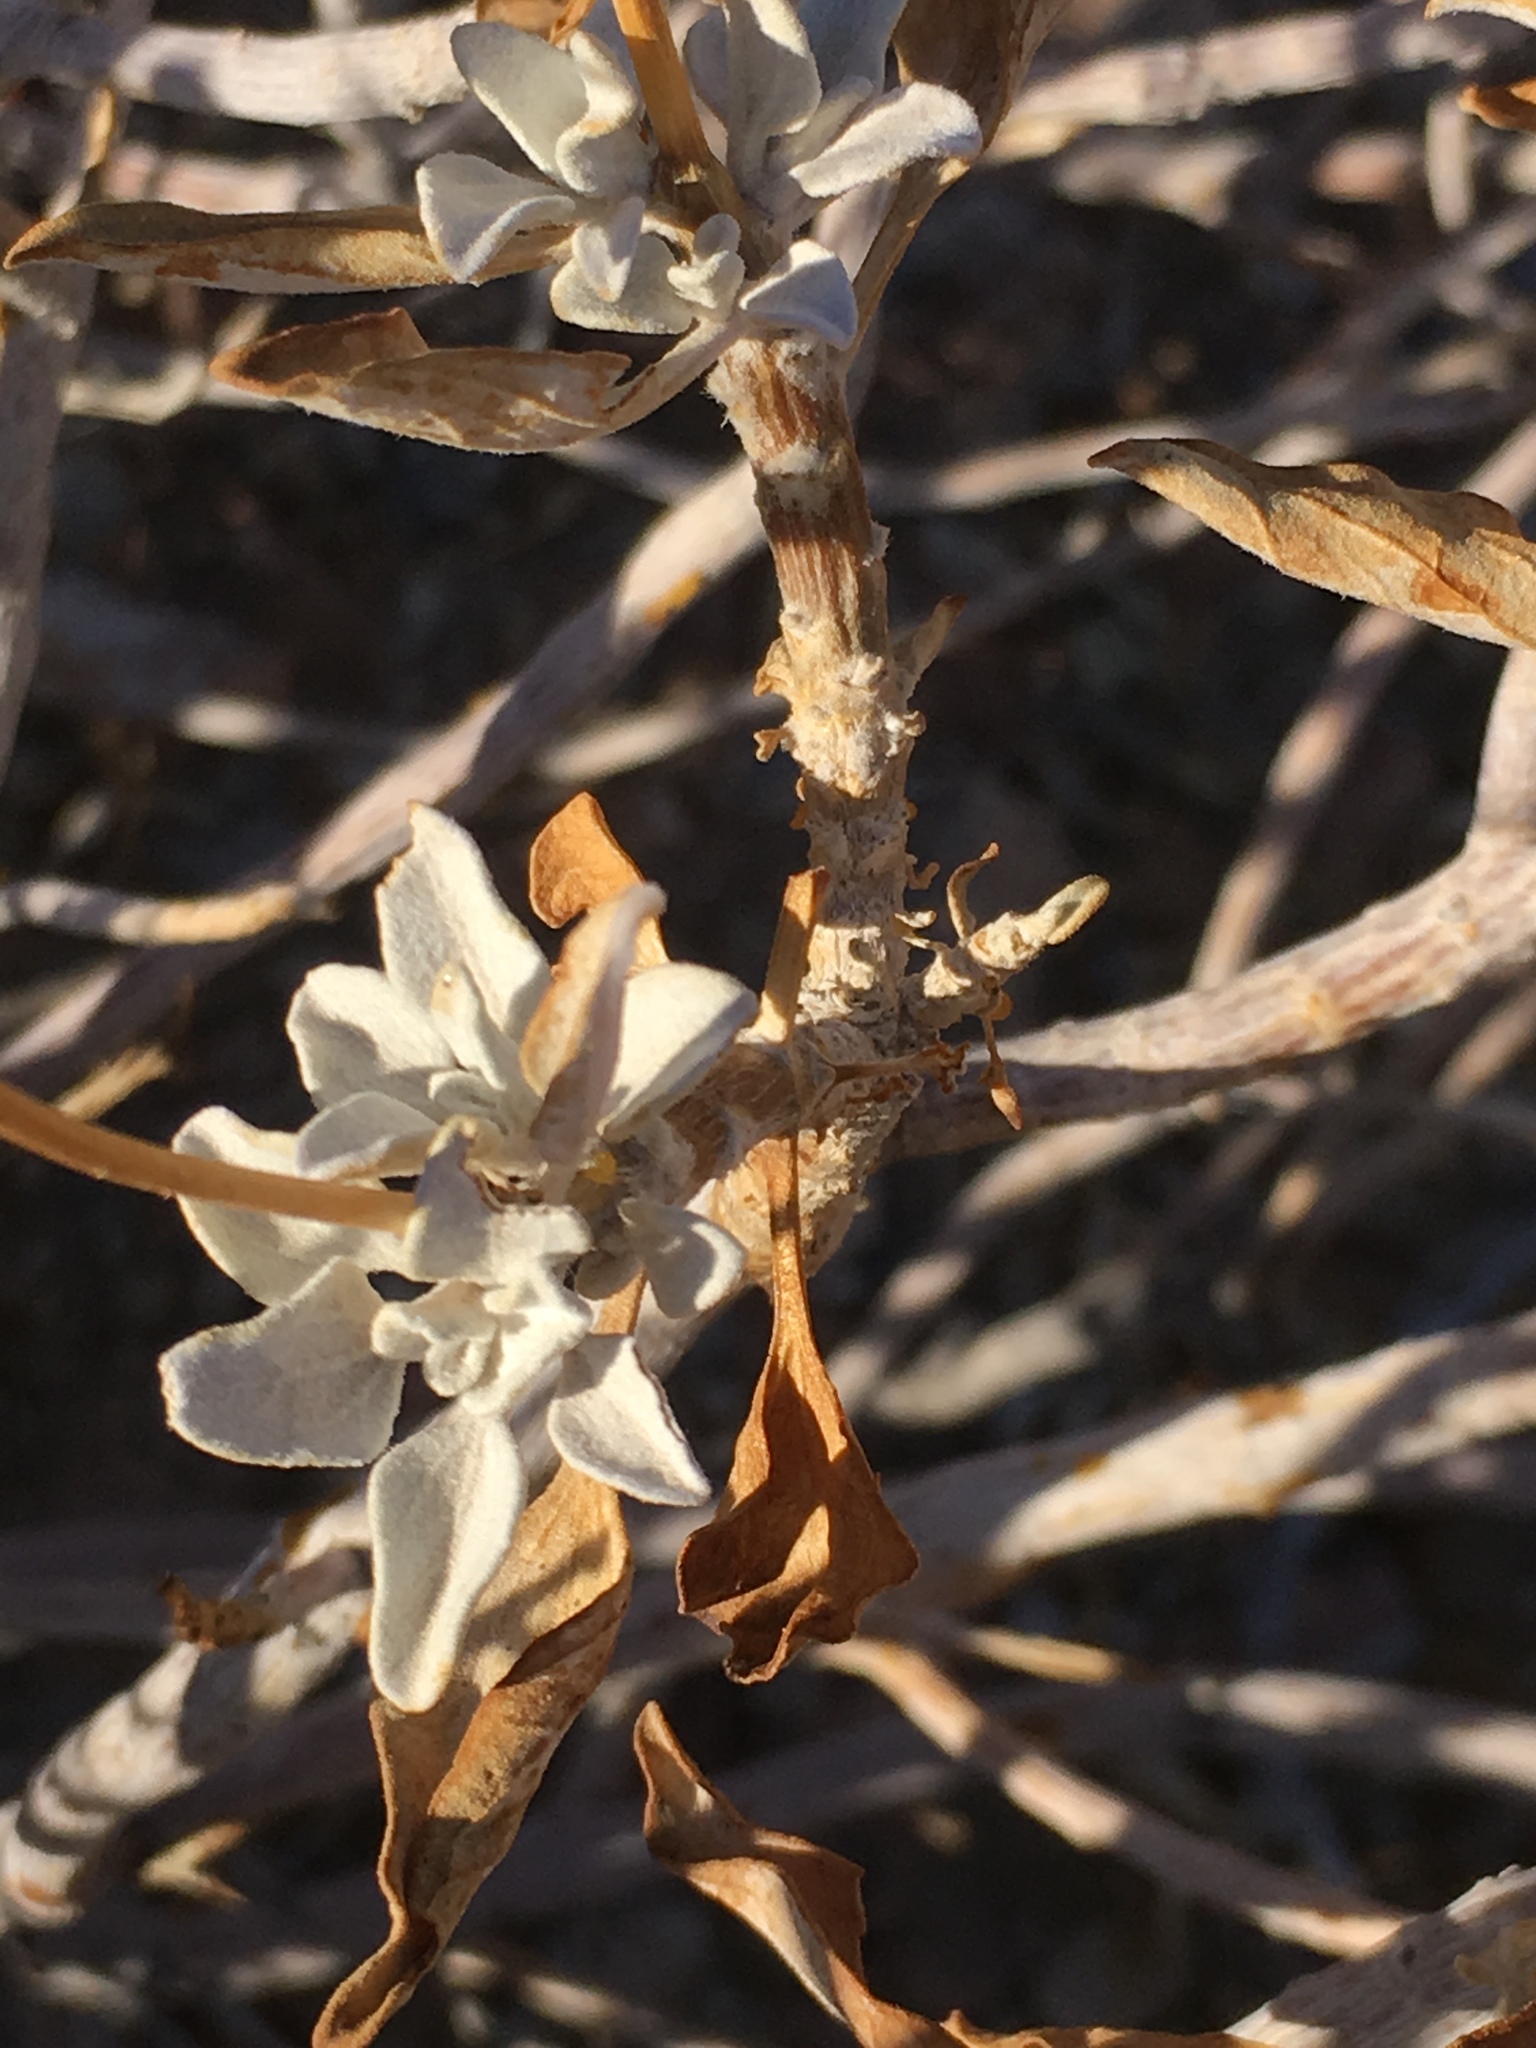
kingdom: Plantae
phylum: Tracheophyta
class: Magnoliopsida
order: Asterales
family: Asteraceae
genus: Encelia
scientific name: Encelia farinosa
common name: Brittlebush
